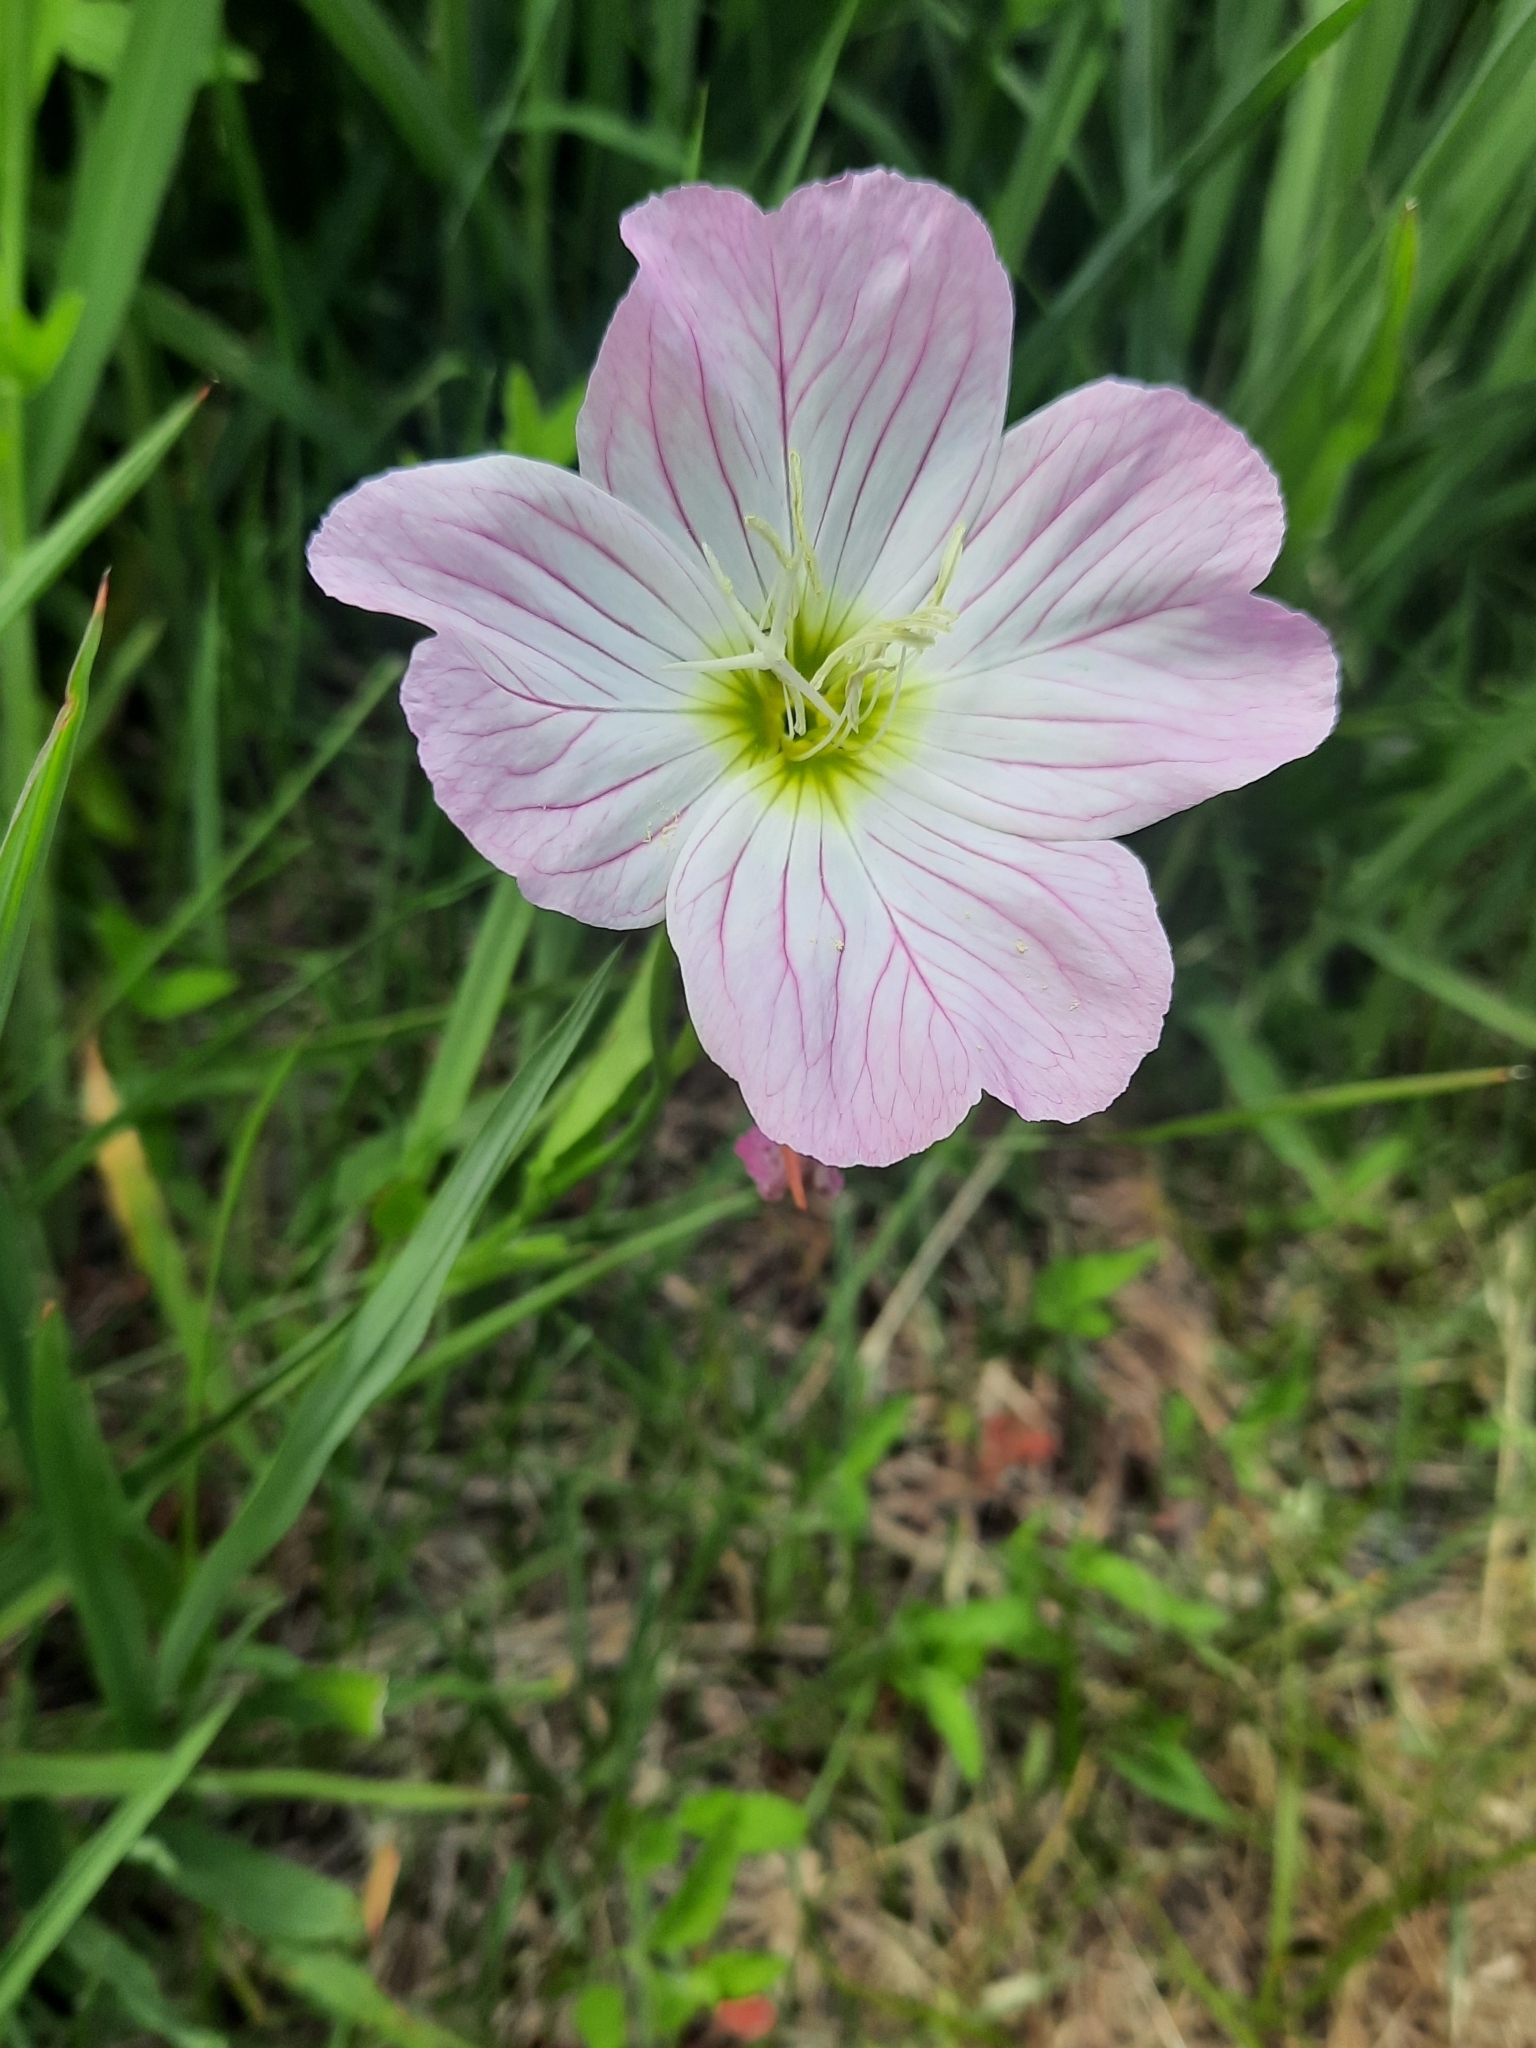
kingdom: Plantae
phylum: Tracheophyta
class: Magnoliopsida
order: Myrtales
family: Onagraceae
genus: Oenothera
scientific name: Oenothera speciosa
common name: White evening-primrose
